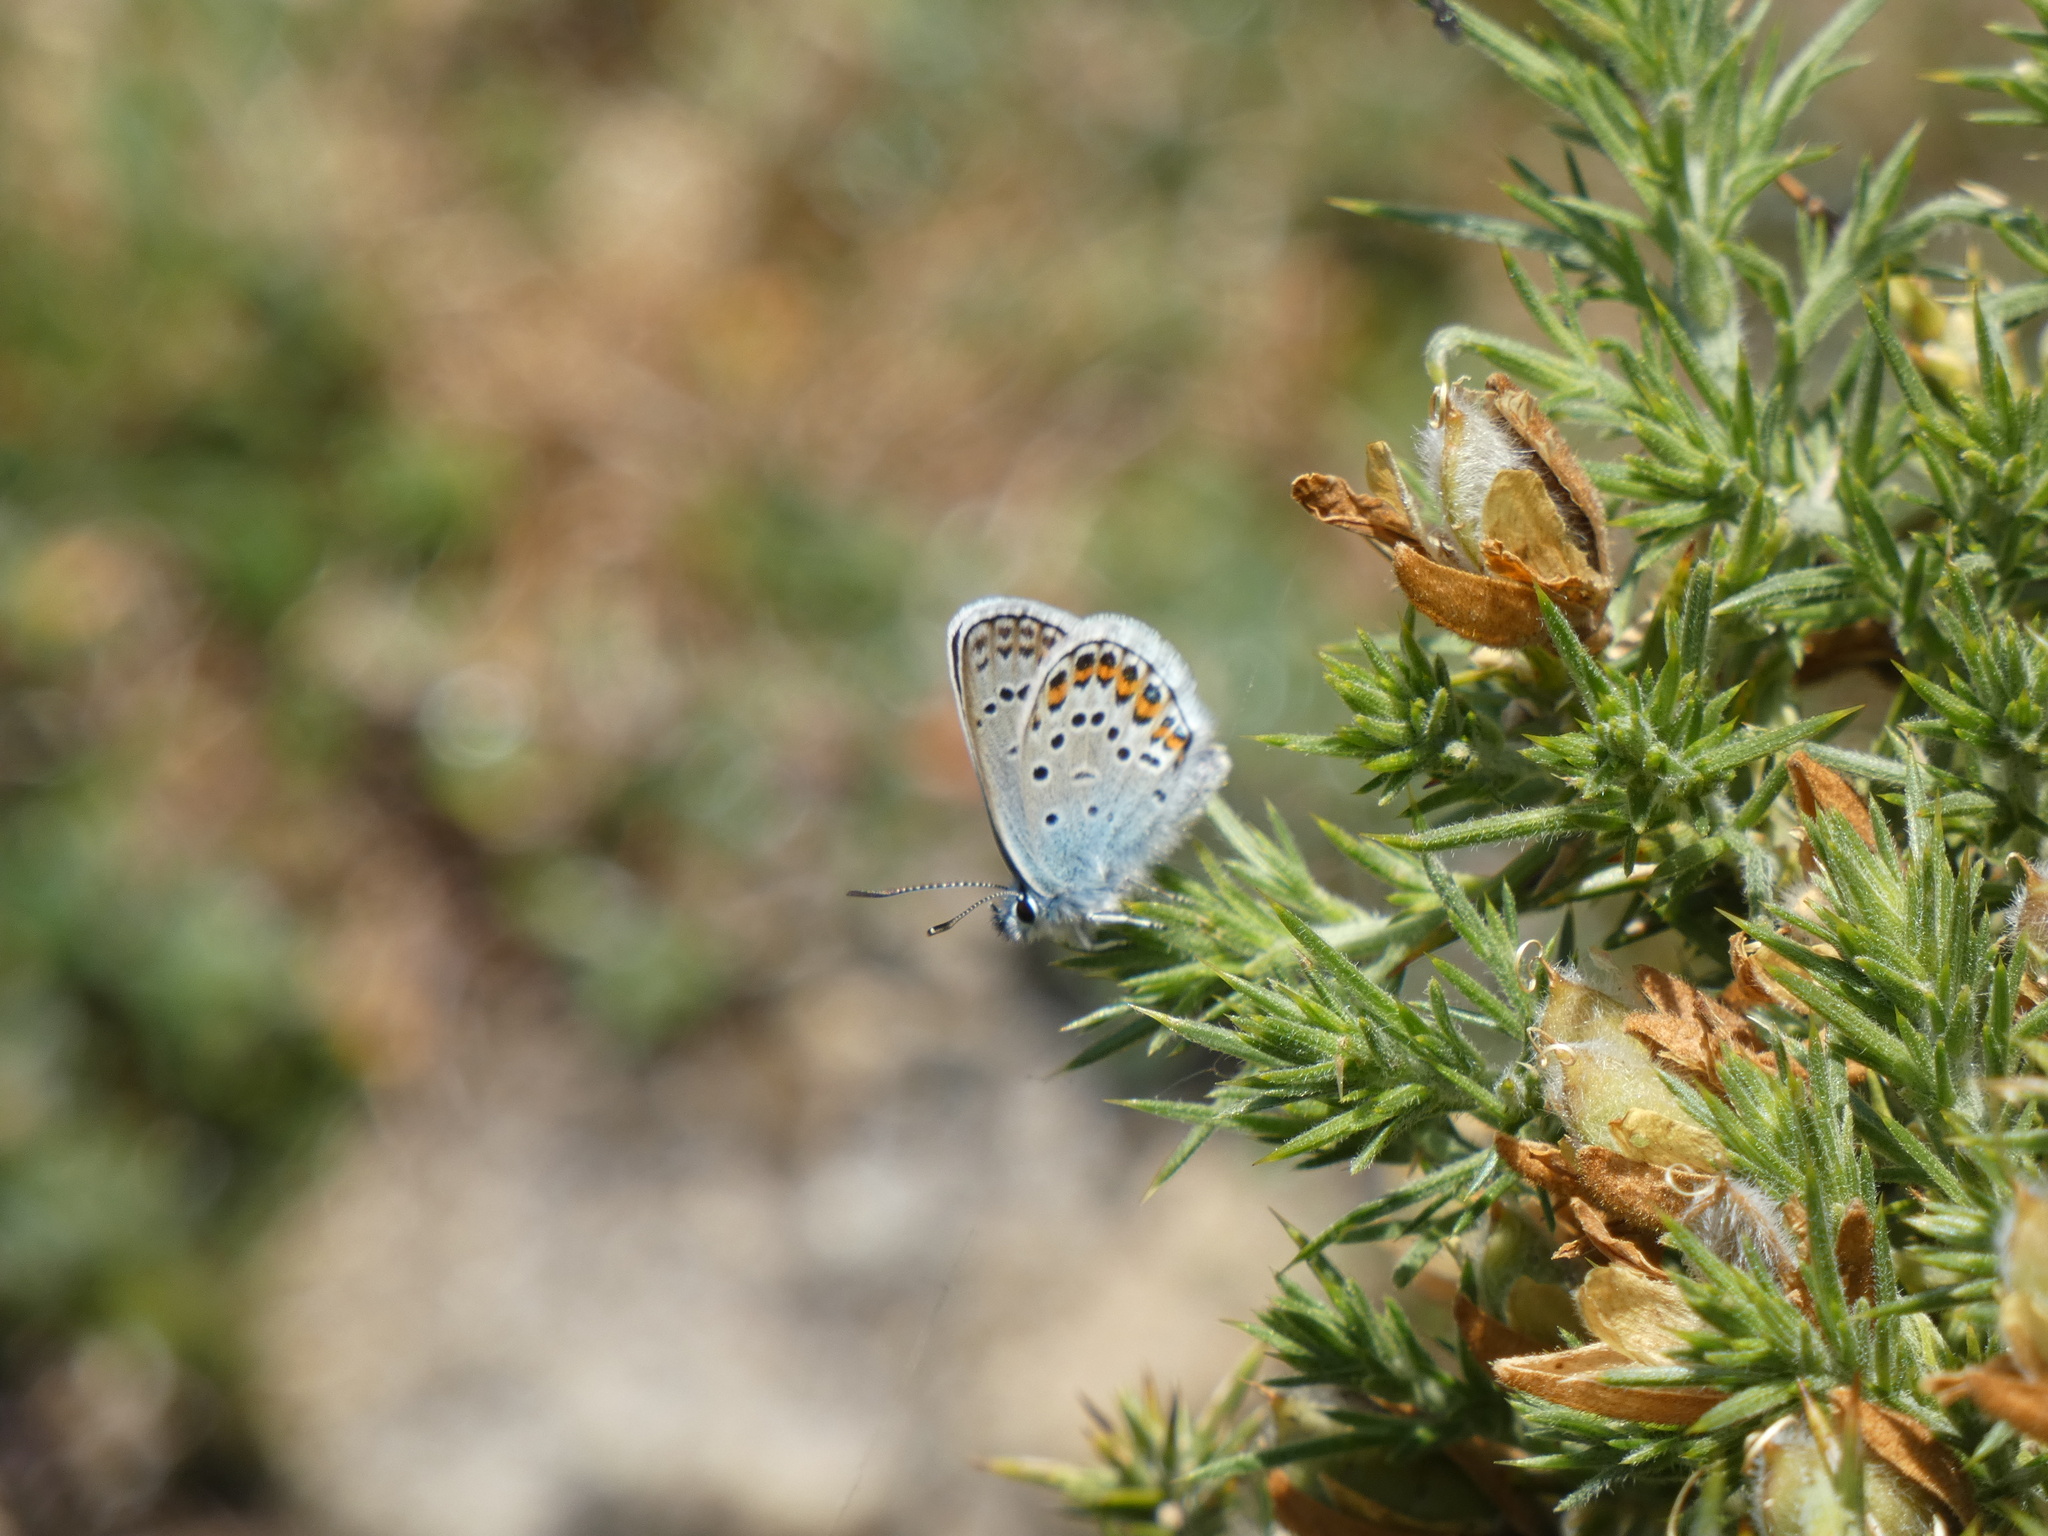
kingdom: Animalia
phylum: Arthropoda
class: Insecta
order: Lepidoptera
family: Lycaenidae
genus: Plebejus
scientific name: Plebejus argus
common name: Silver-studded blue
